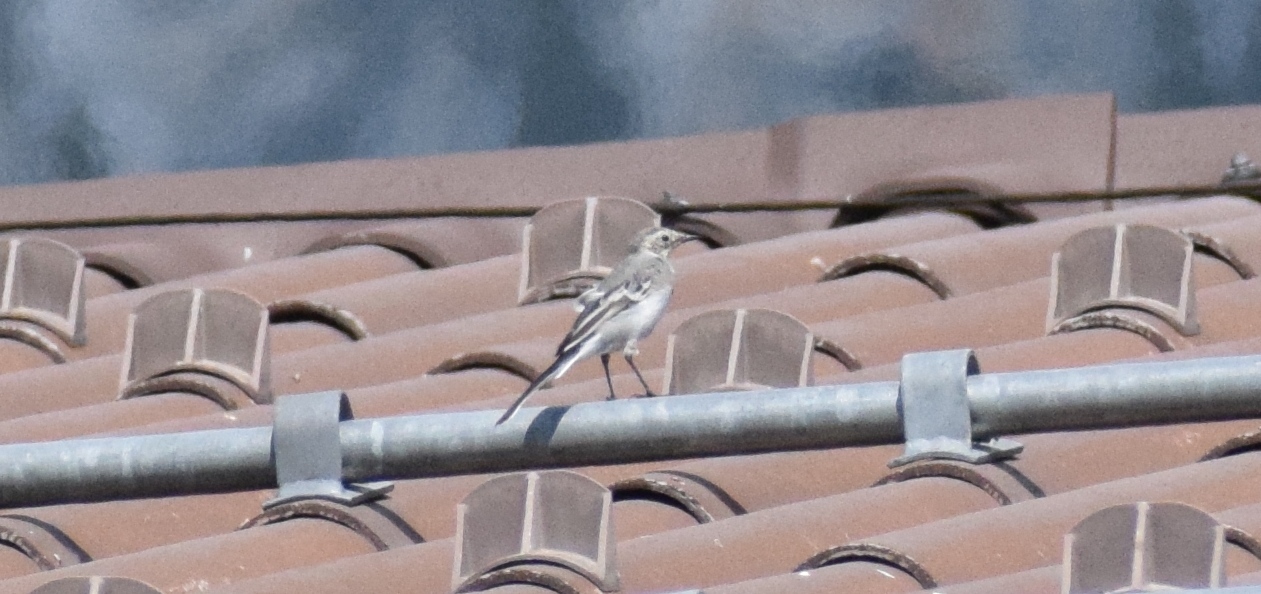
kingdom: Animalia
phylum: Chordata
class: Aves
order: Passeriformes
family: Motacillidae
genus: Motacilla
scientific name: Motacilla alba
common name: White wagtail
